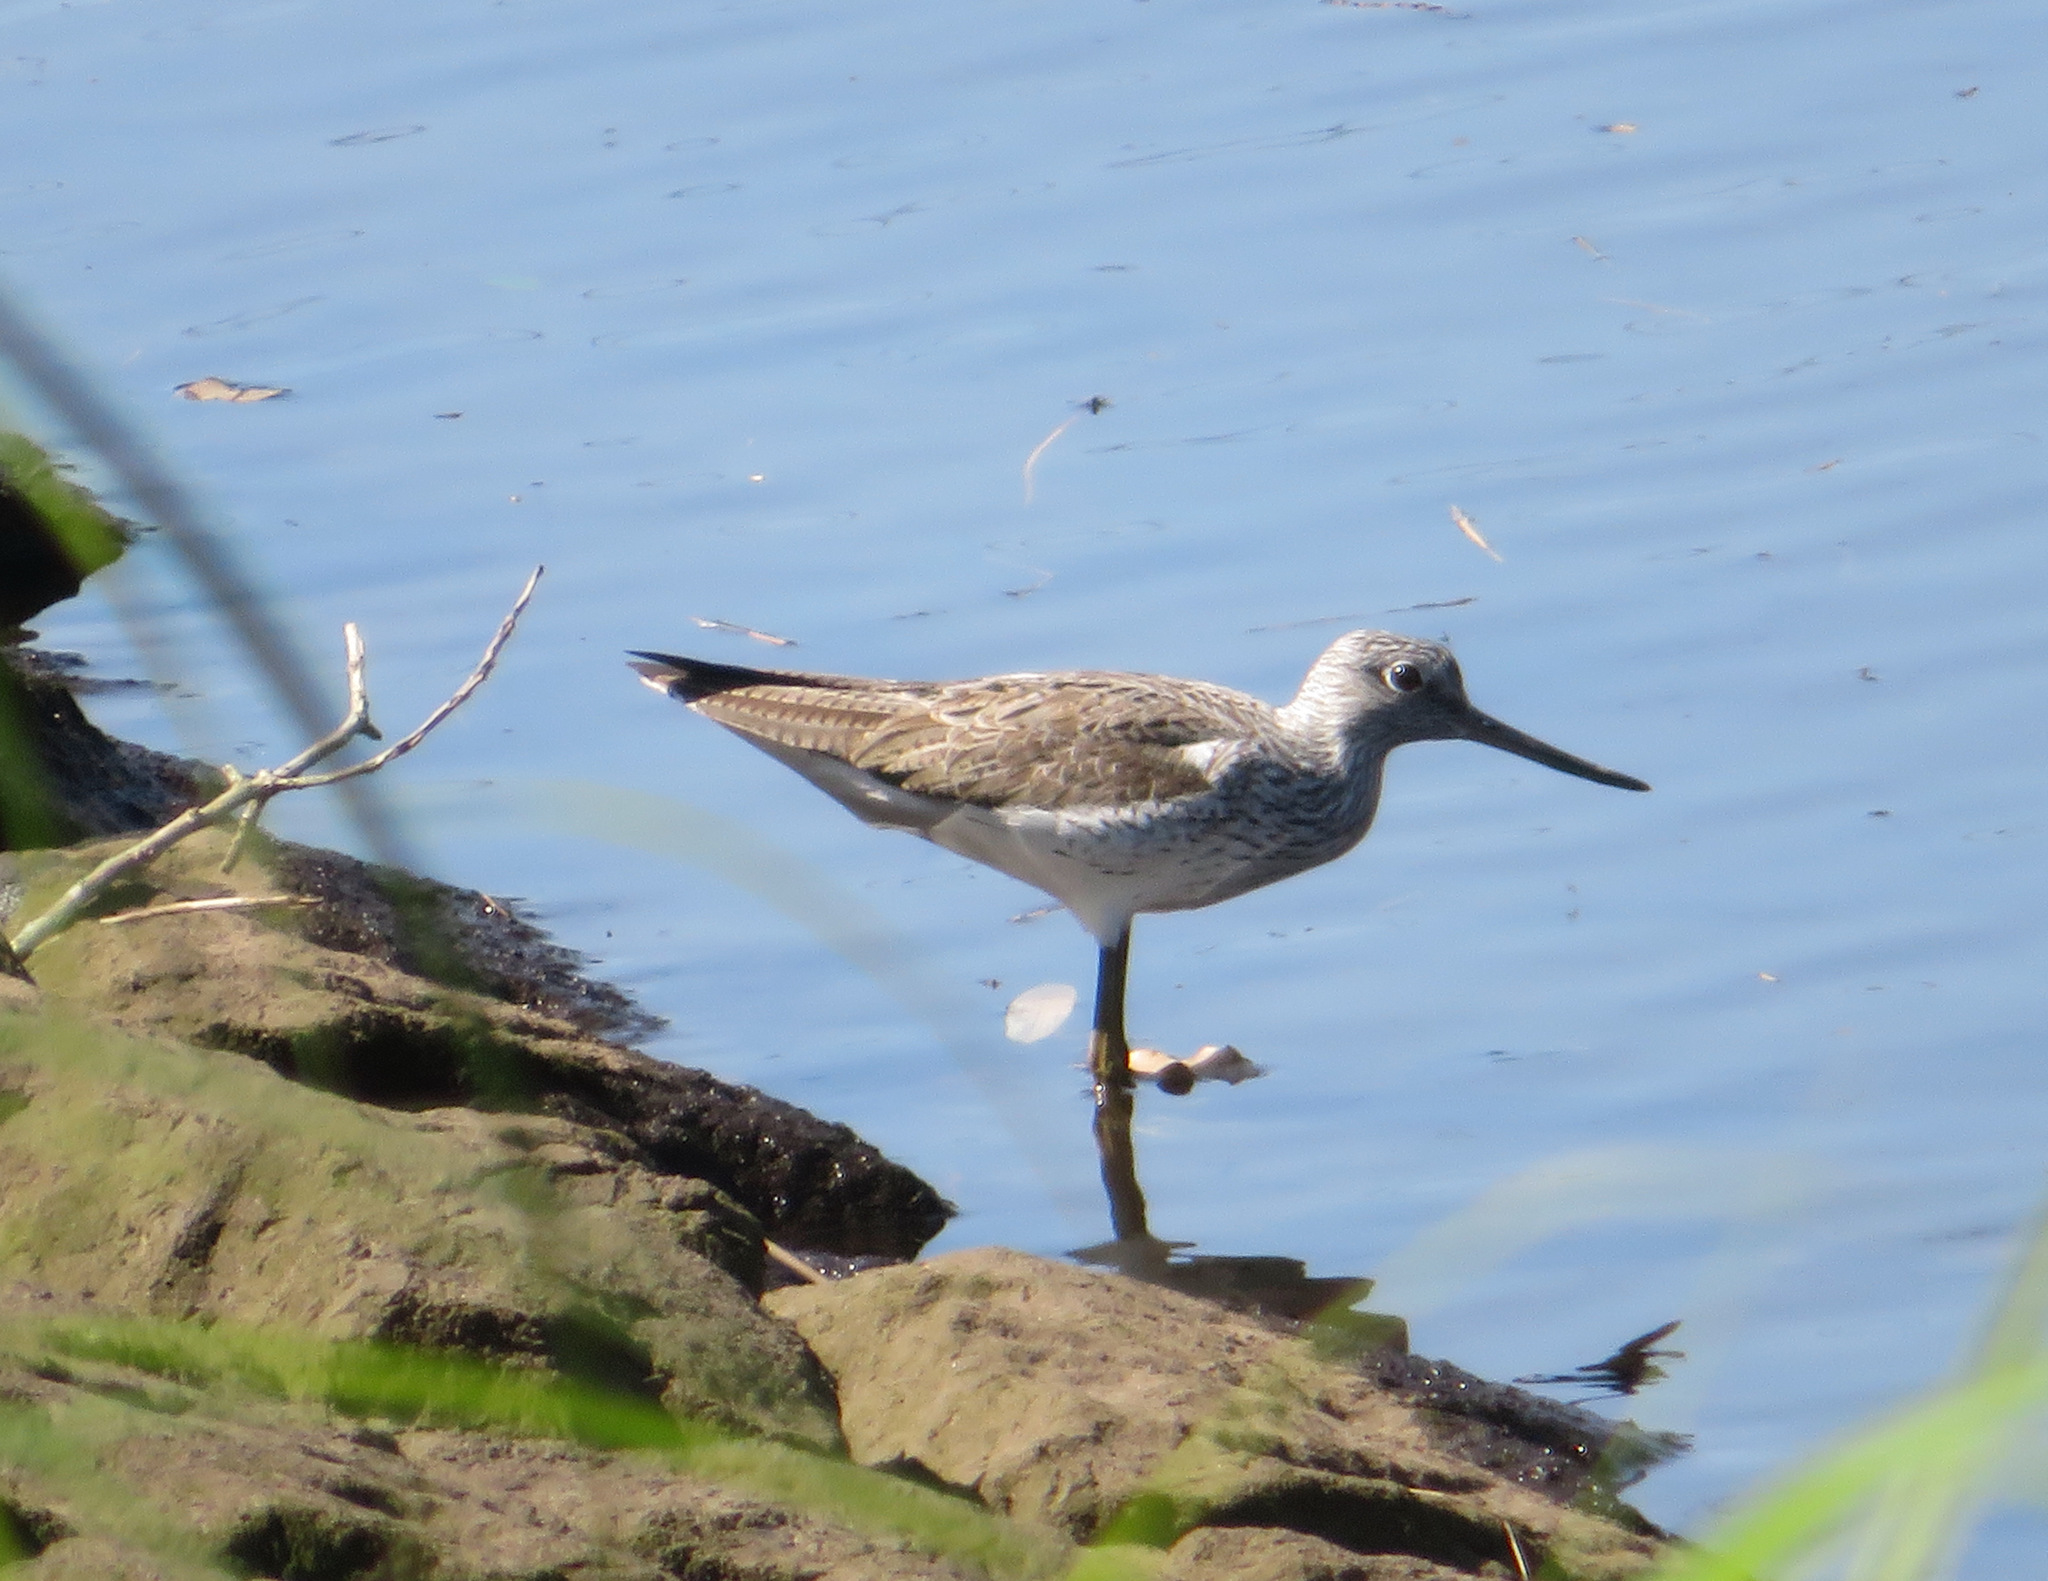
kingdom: Animalia
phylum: Chordata
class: Aves
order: Charadriiformes
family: Scolopacidae
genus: Tringa
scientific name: Tringa nebularia
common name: Common greenshank
